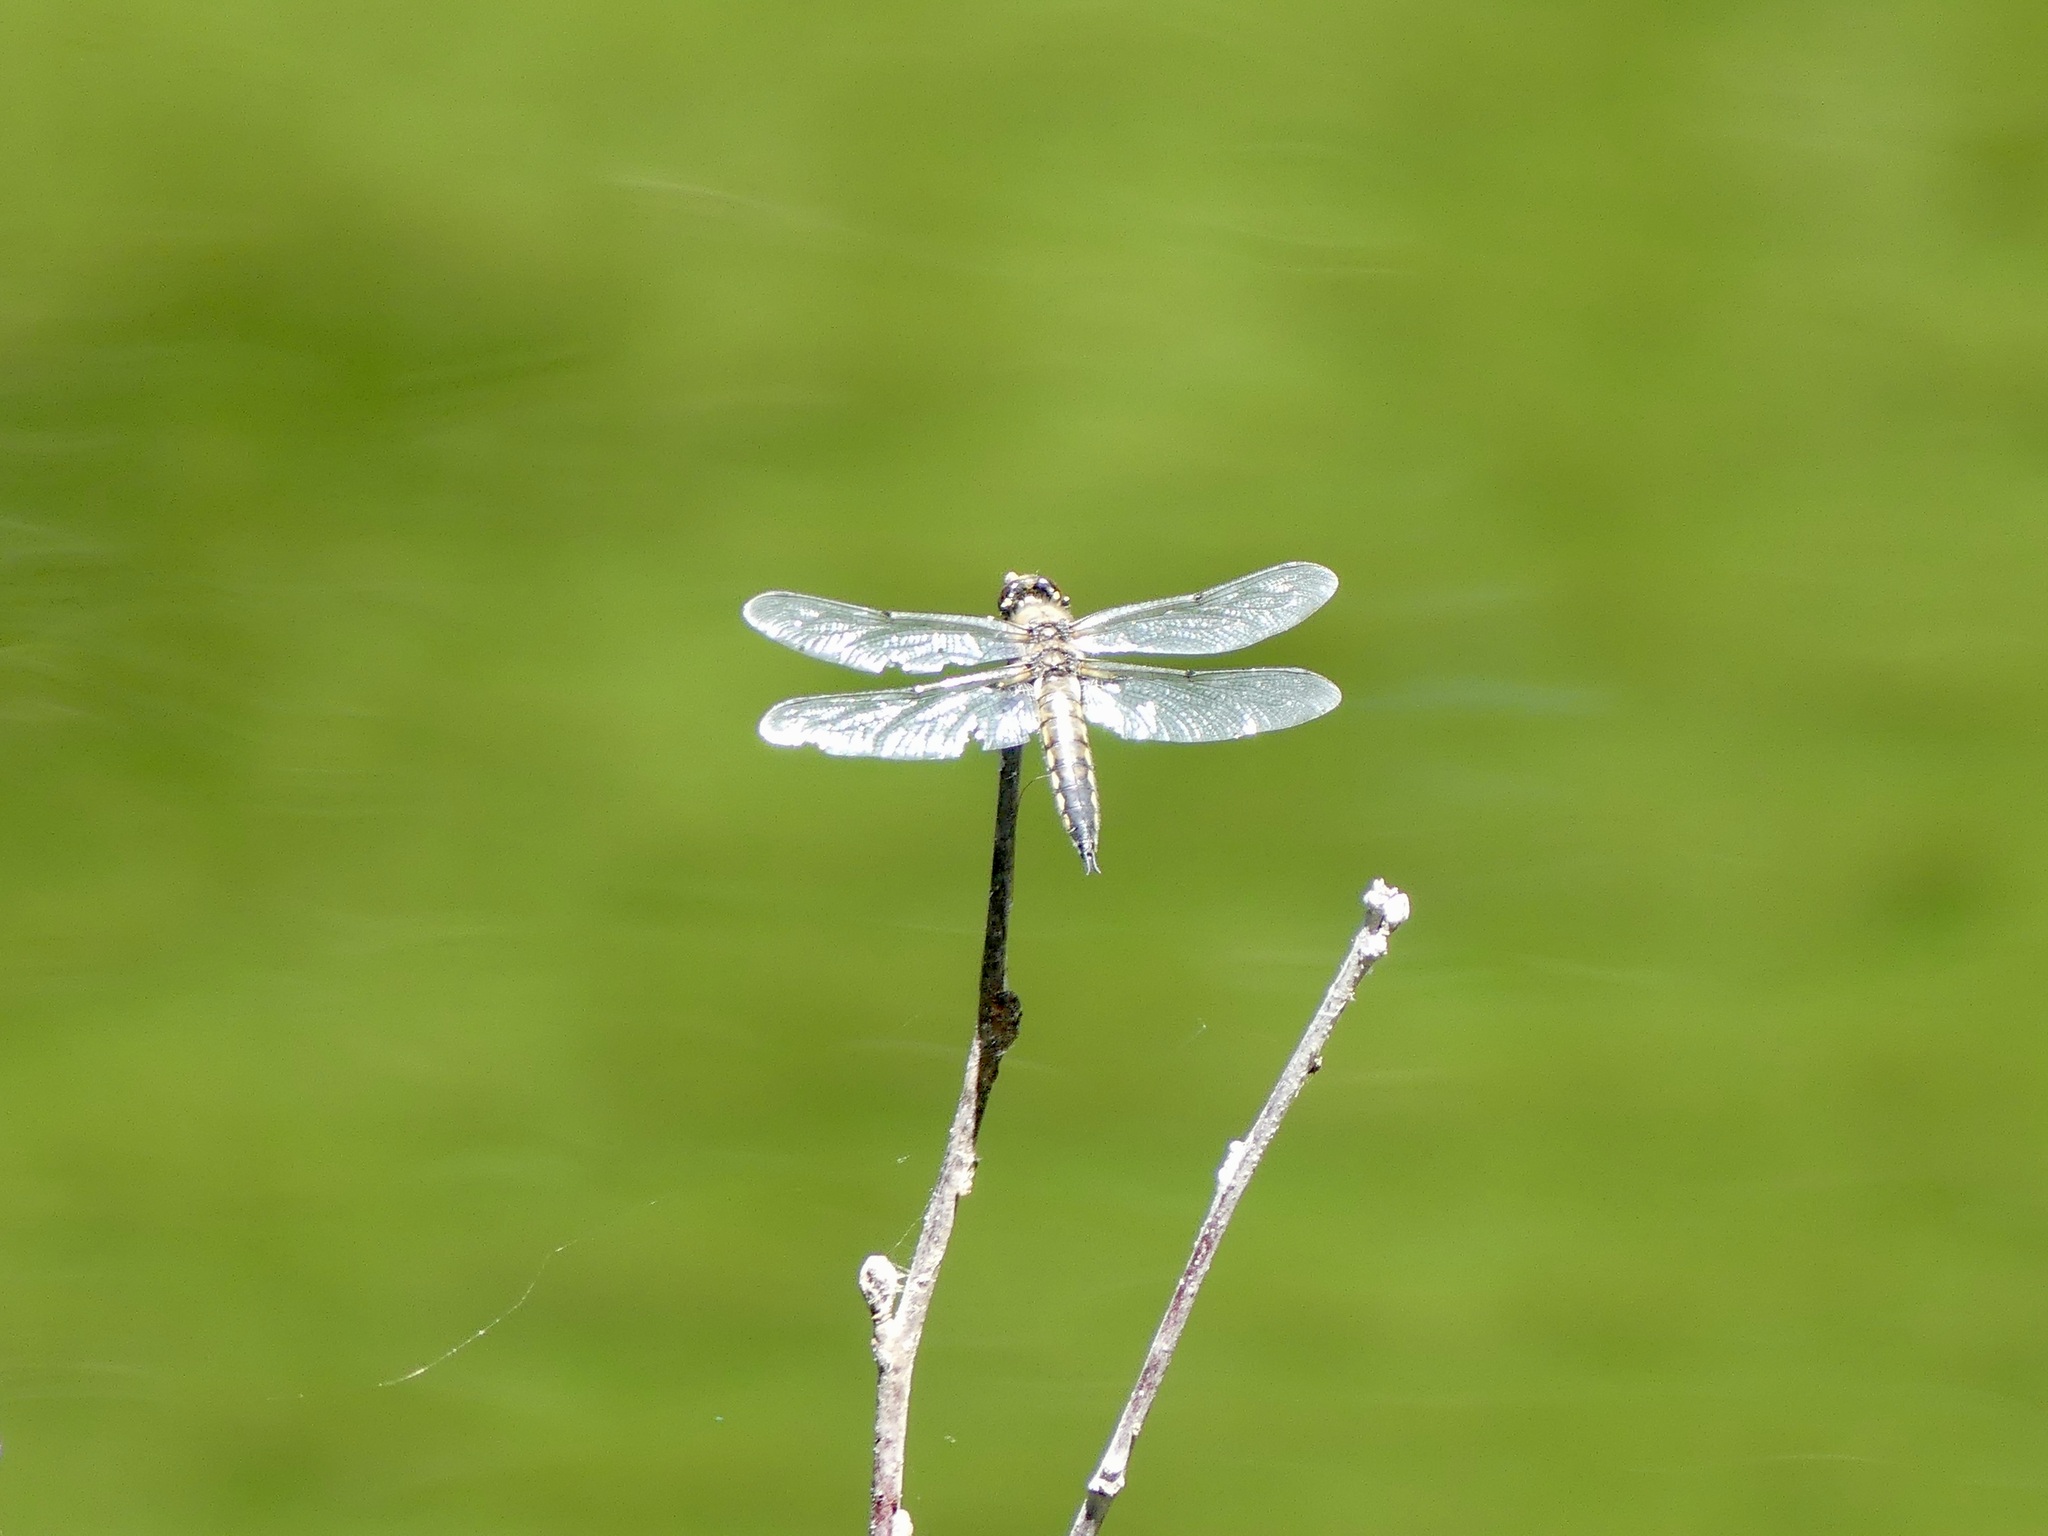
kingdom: Animalia
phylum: Arthropoda
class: Insecta
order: Odonata
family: Libellulidae
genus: Libellula
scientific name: Libellula quadrimaculata
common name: Four-spotted chaser
